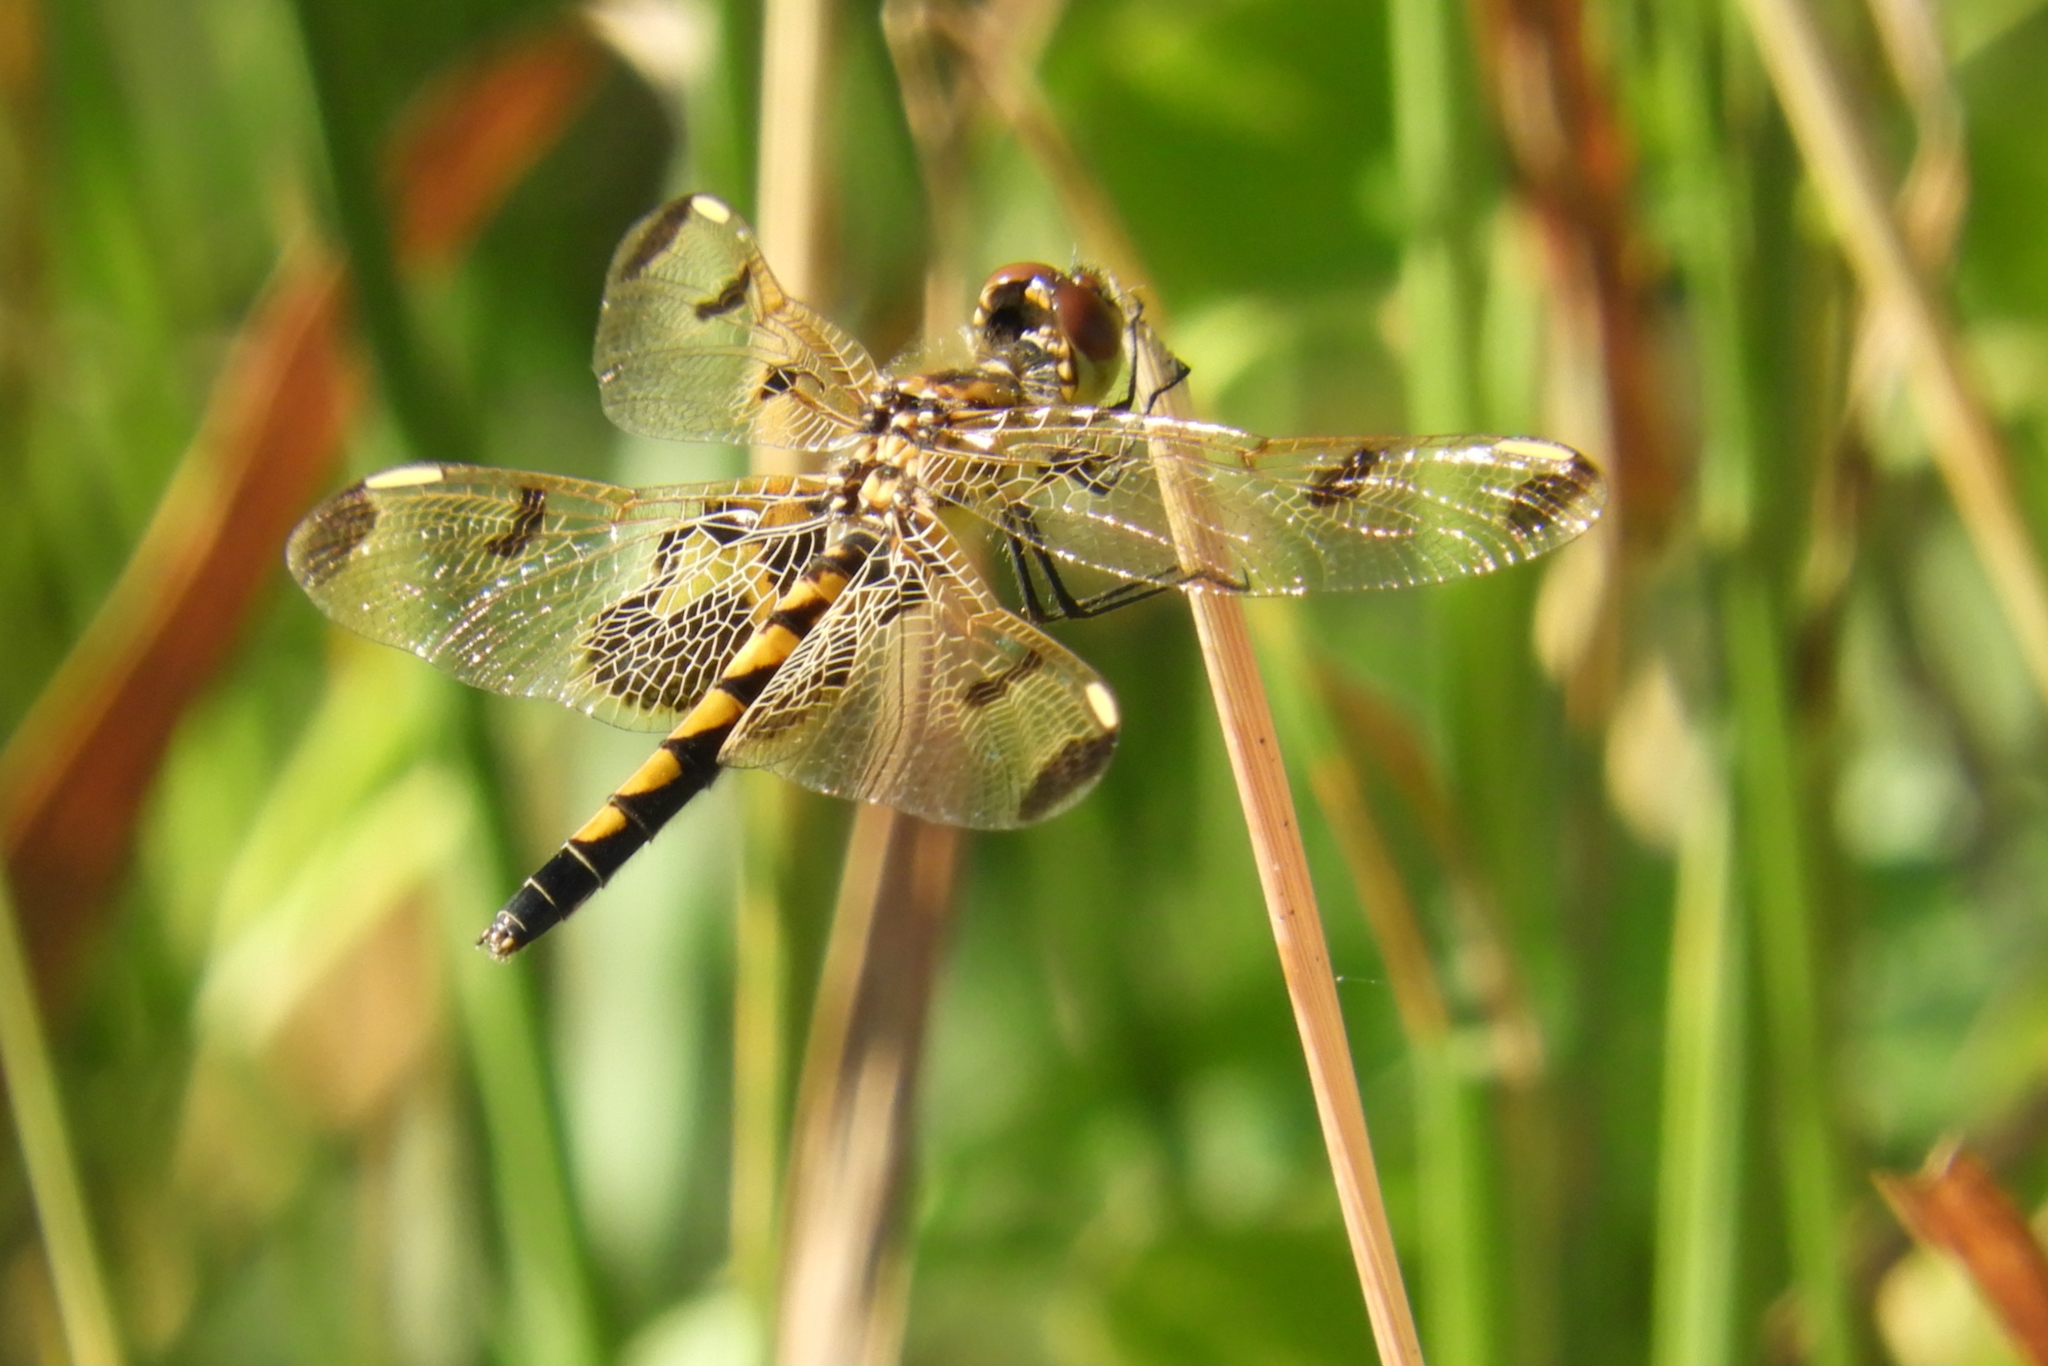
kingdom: Animalia
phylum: Arthropoda
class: Insecta
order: Odonata
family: Libellulidae
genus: Celithemis
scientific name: Celithemis elisa
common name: Calico pennant
